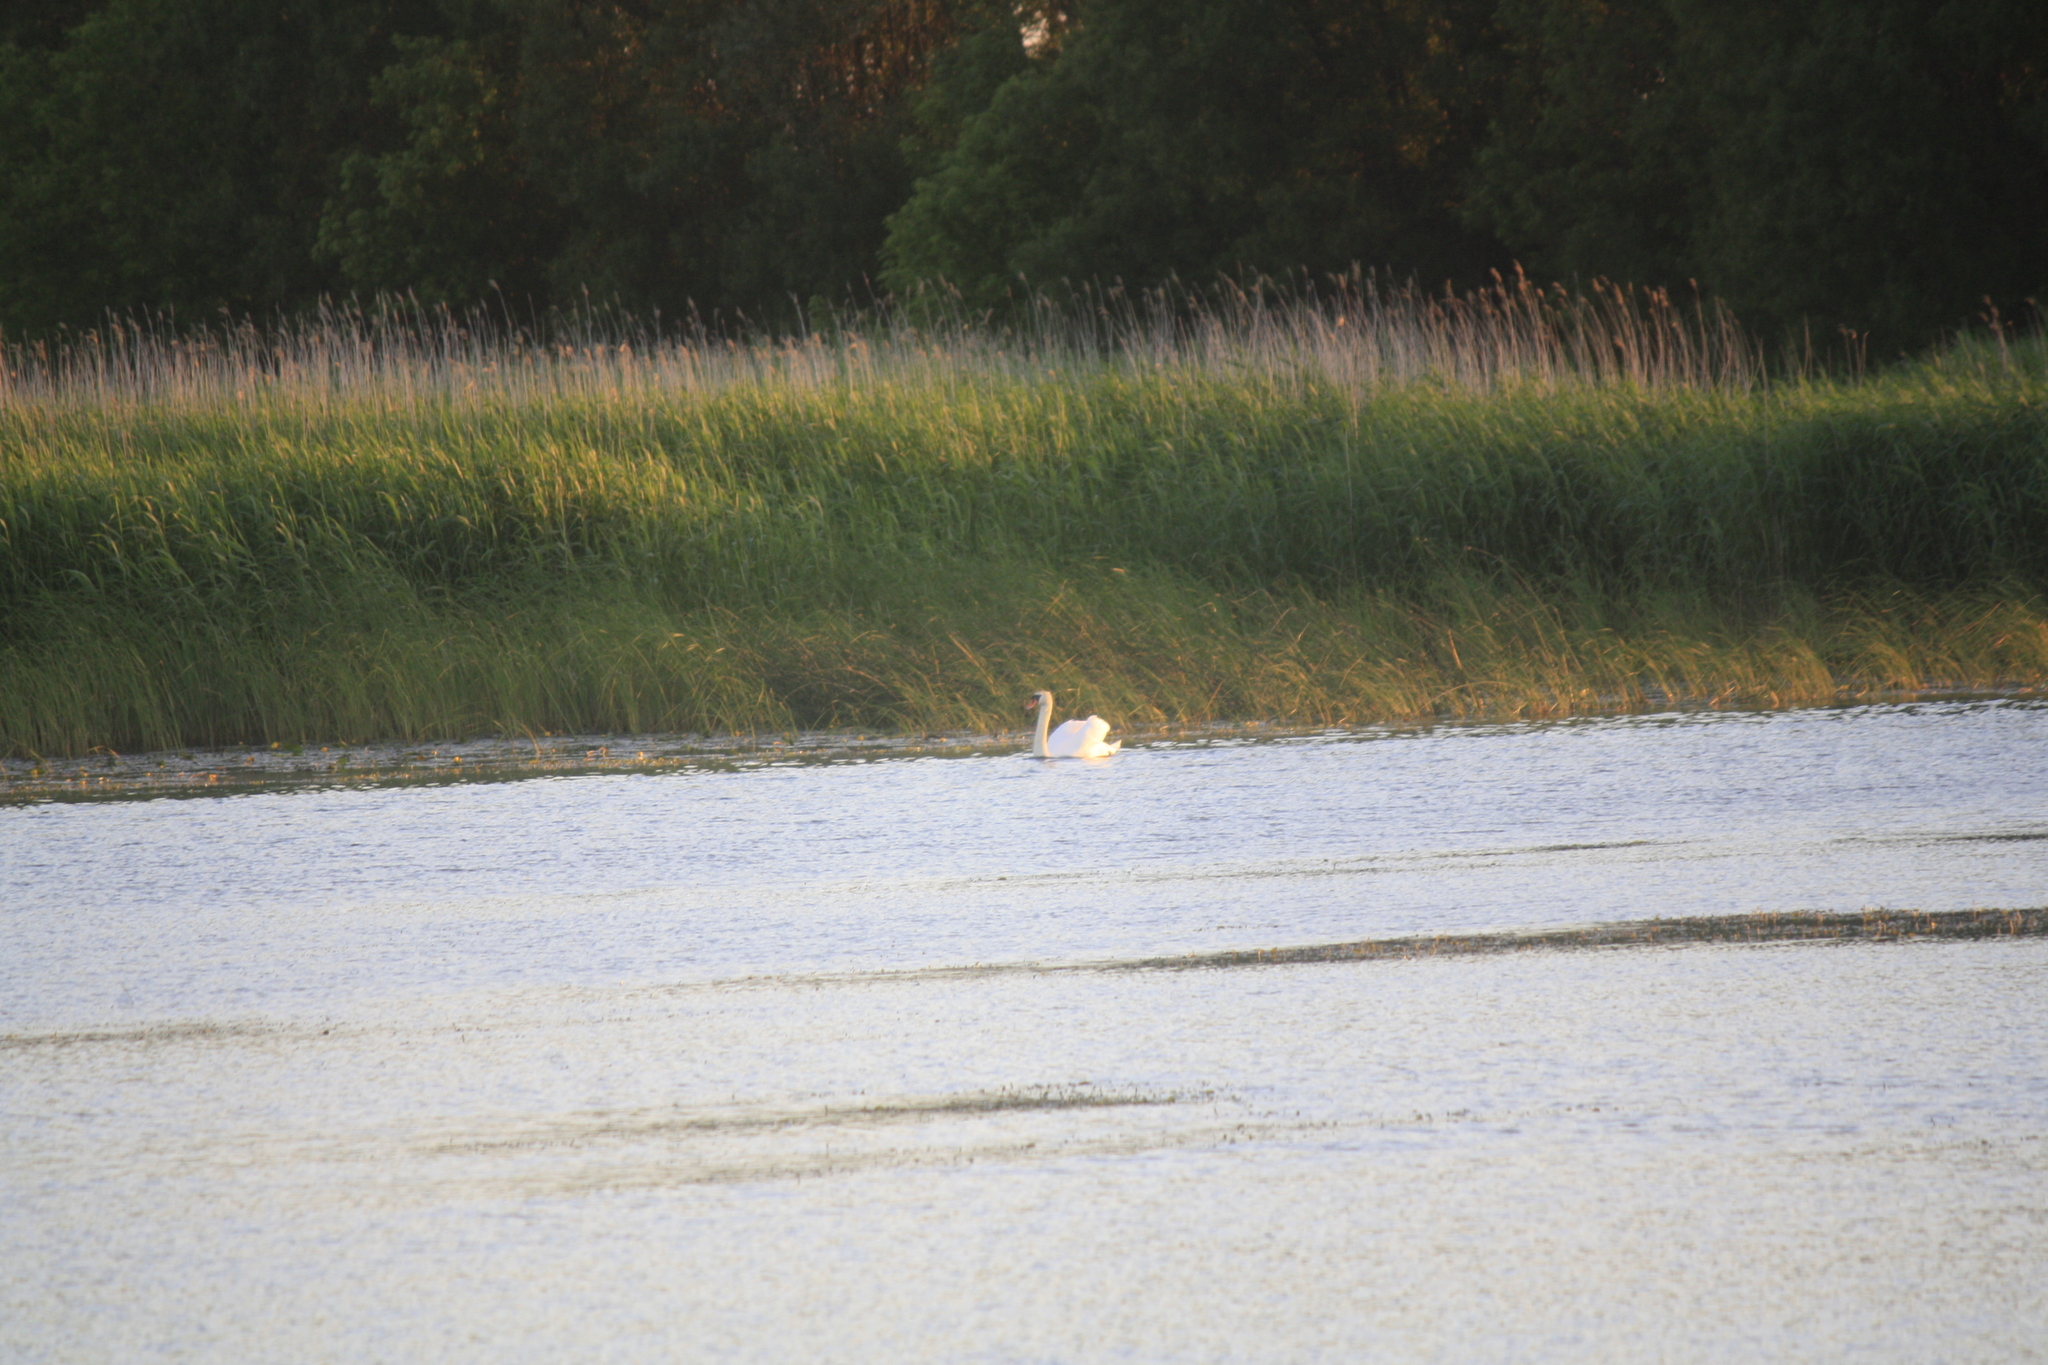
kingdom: Animalia
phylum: Chordata
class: Aves
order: Anseriformes
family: Anatidae
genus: Cygnus
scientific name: Cygnus olor
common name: Mute swan
